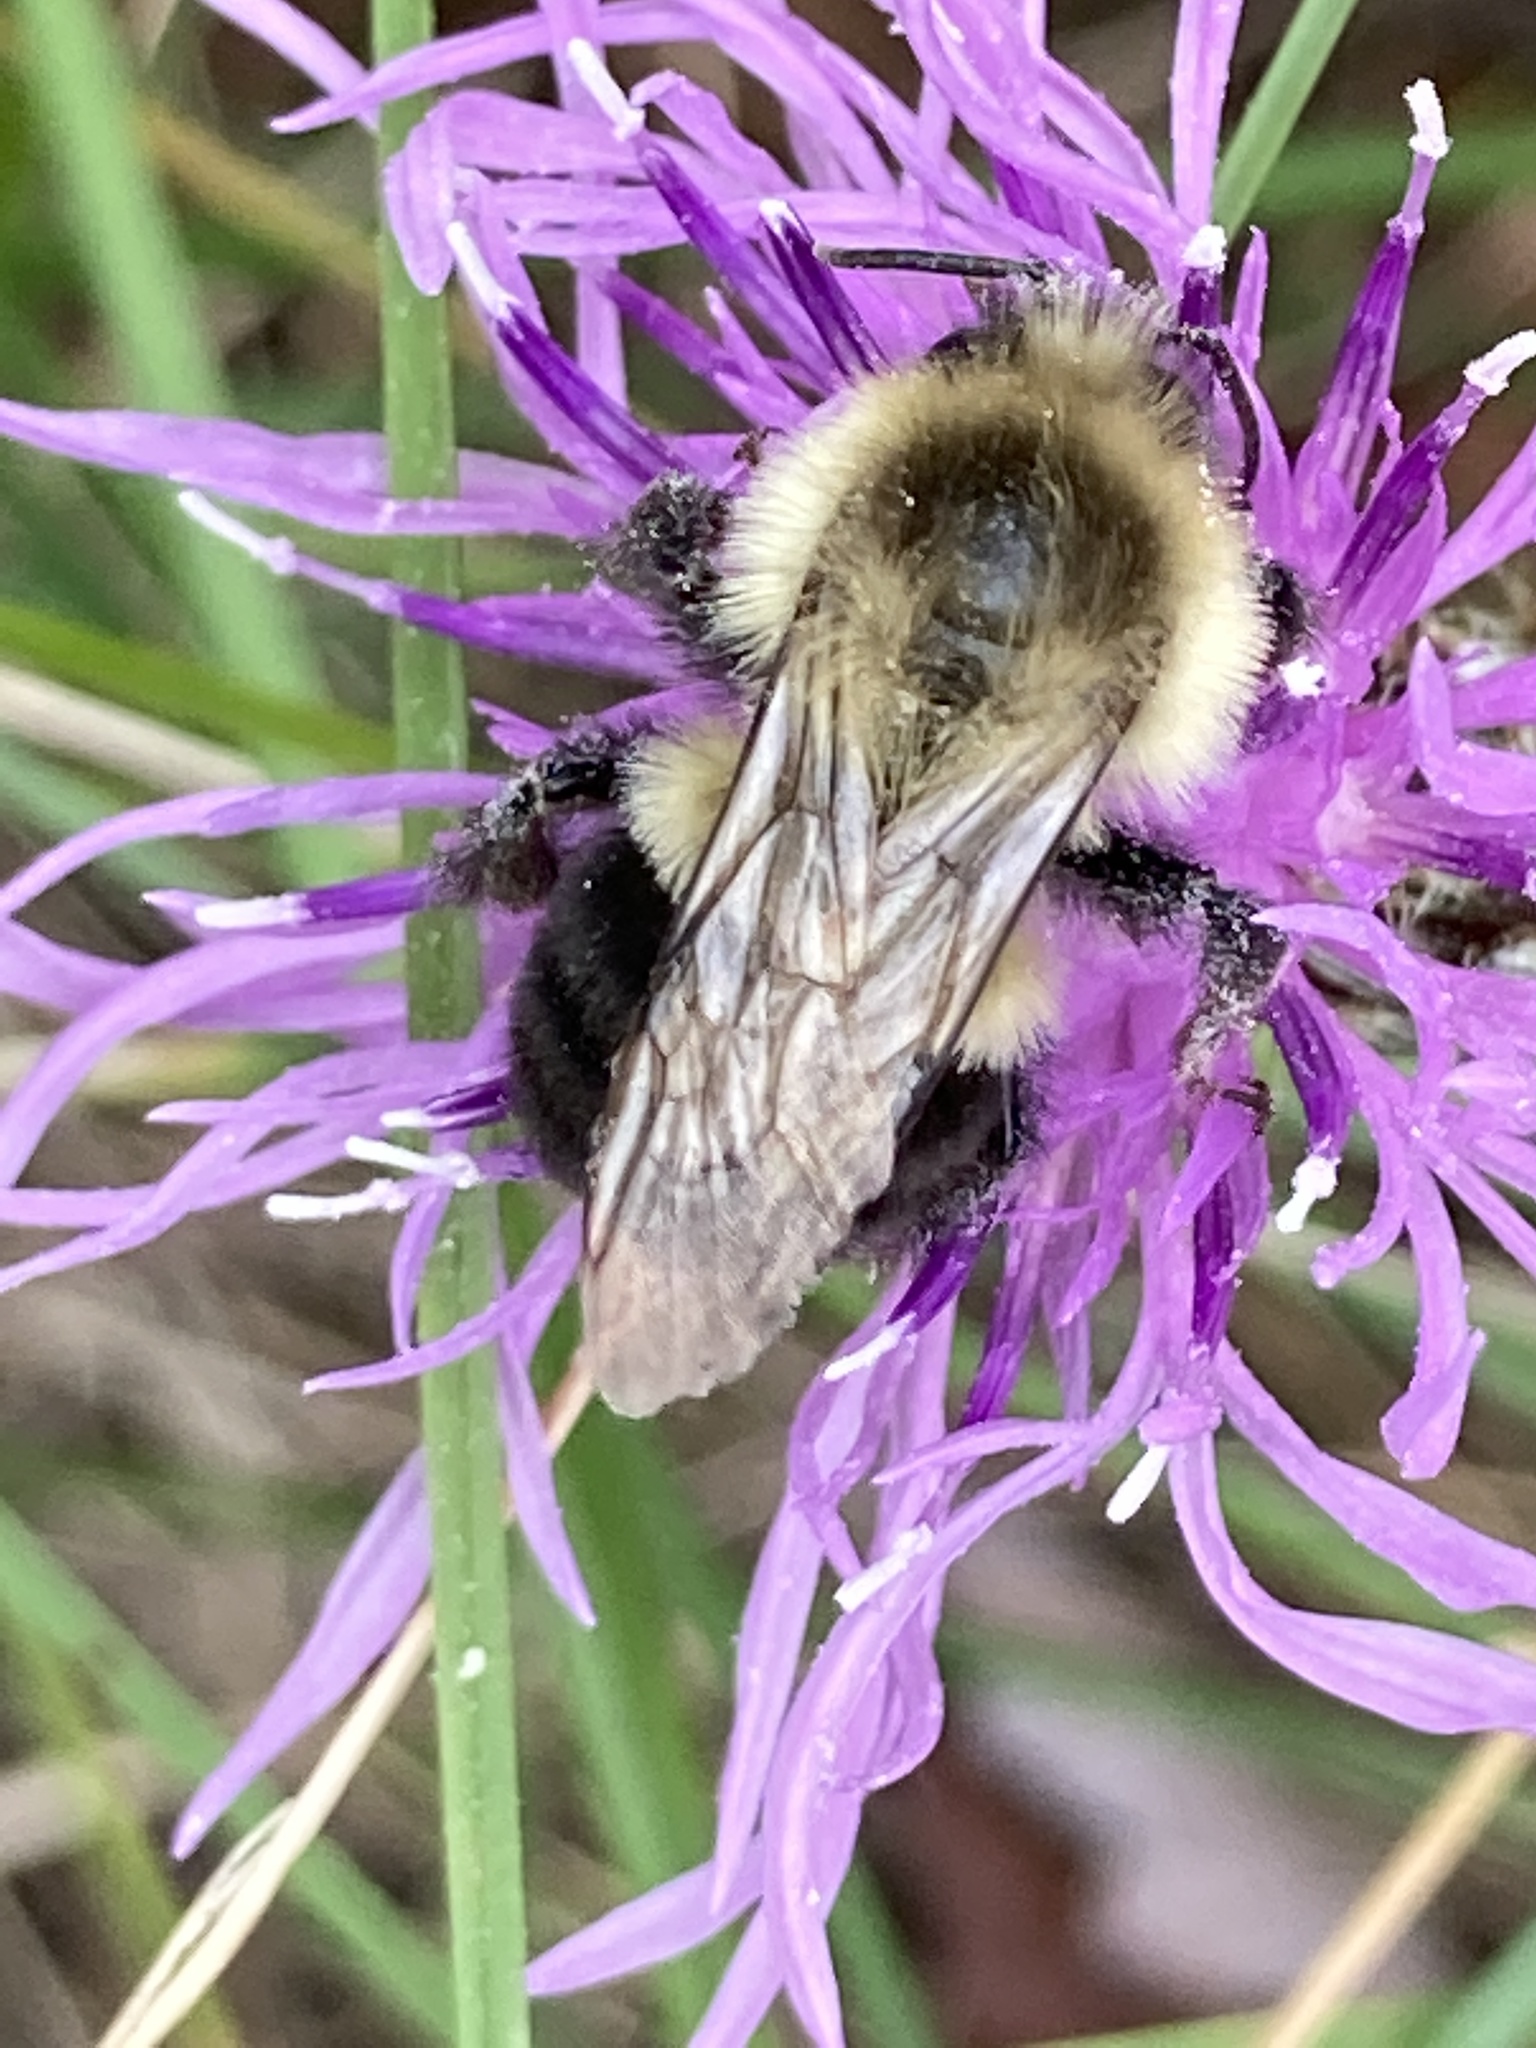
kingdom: Animalia
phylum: Arthropoda
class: Insecta
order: Hymenoptera
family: Apidae
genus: Bombus
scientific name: Bombus impatiens
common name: Common eastern bumble bee
